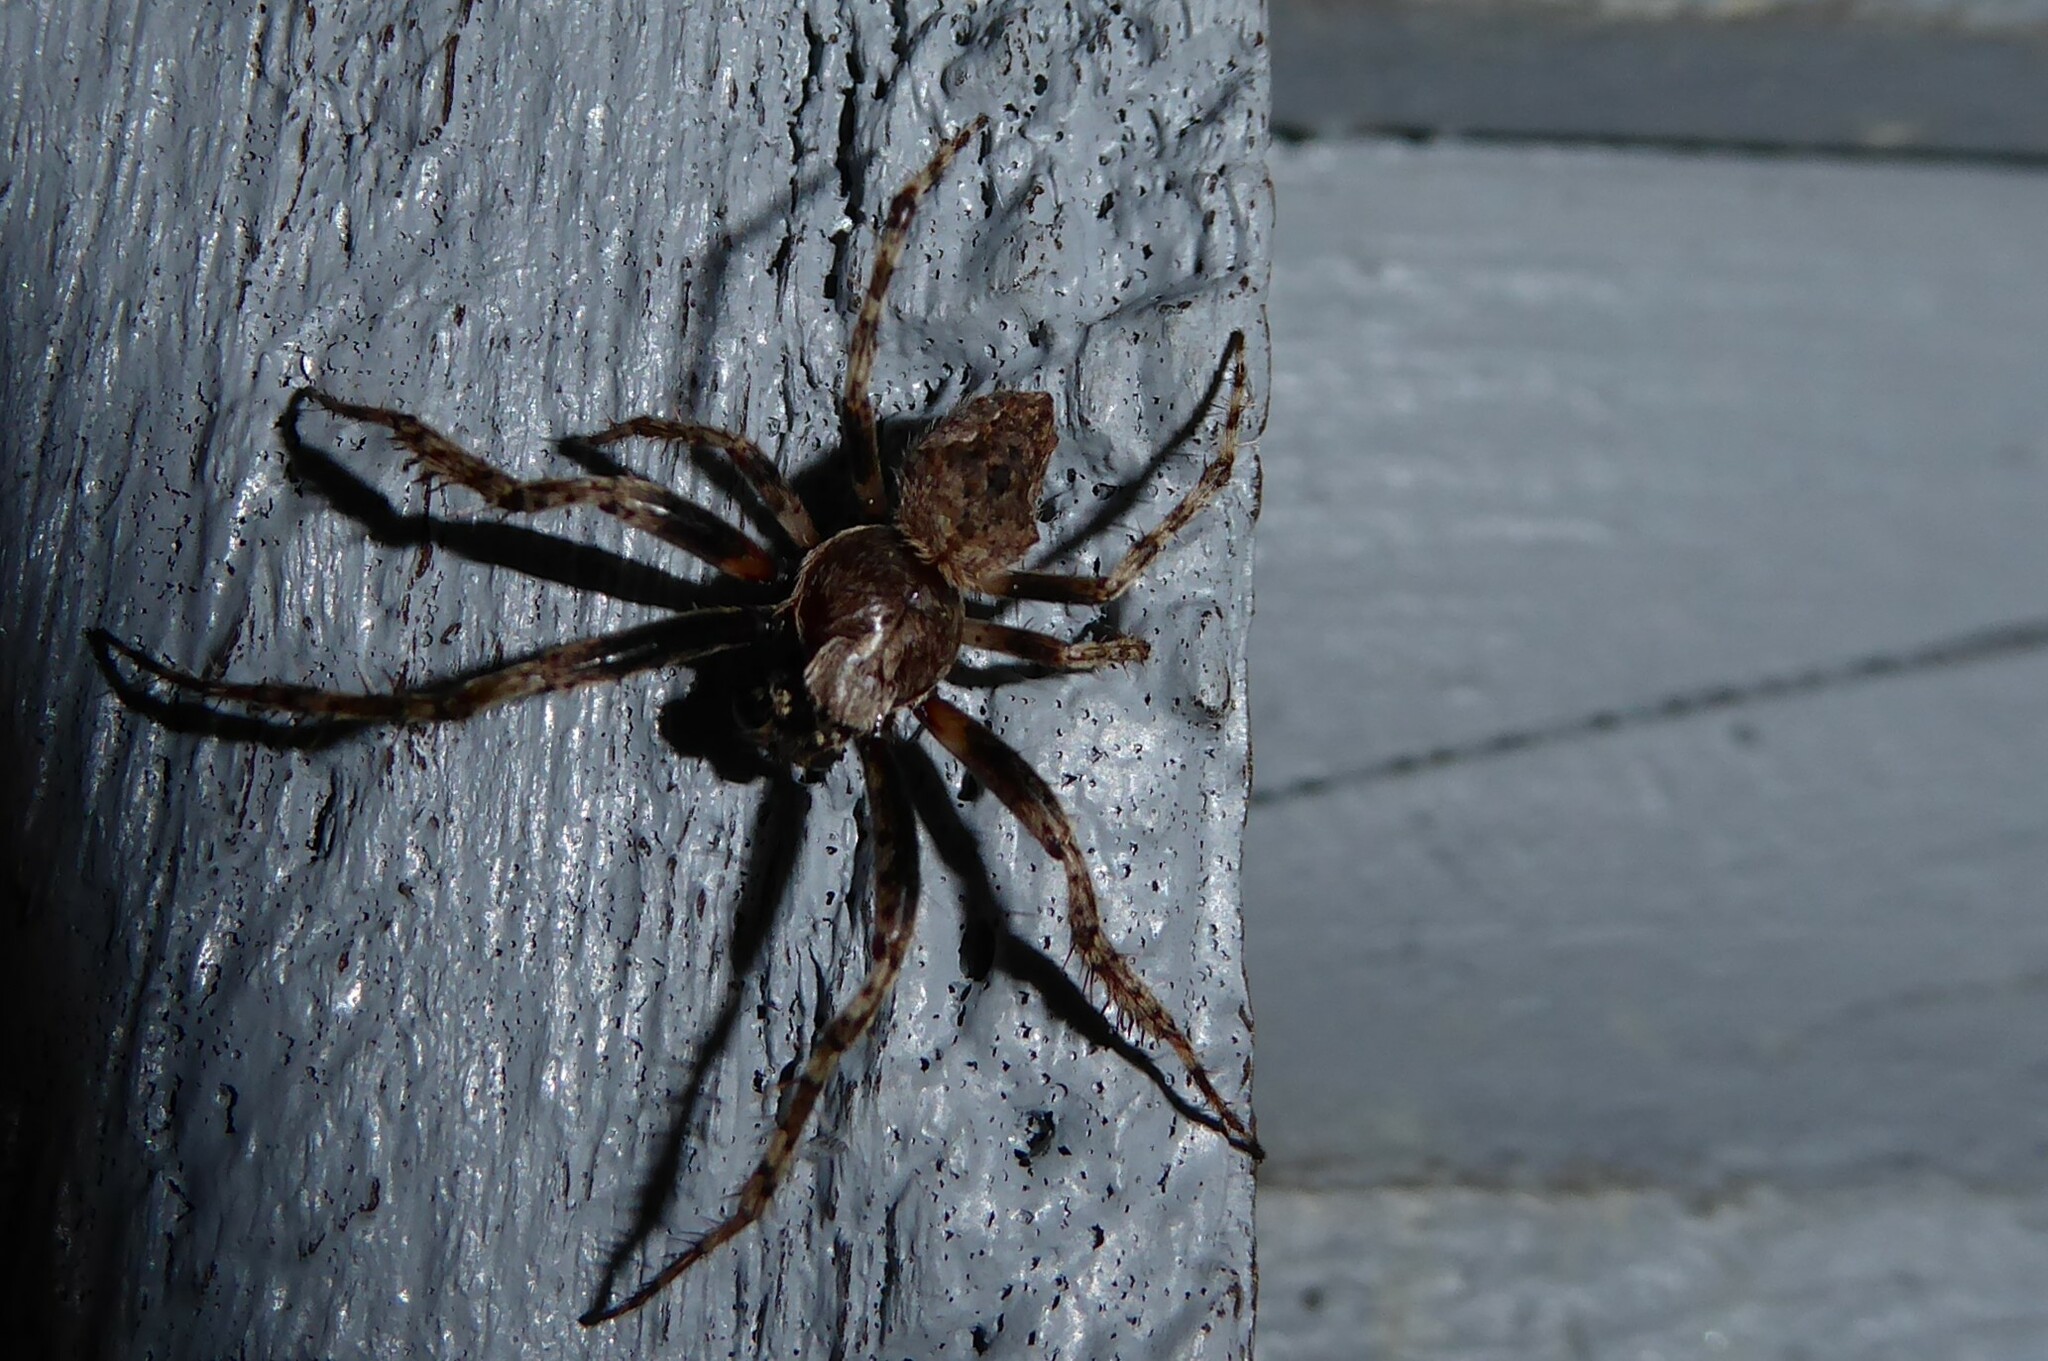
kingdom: Animalia
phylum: Arthropoda
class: Arachnida
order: Araneae
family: Araneidae
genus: Eriophora
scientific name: Eriophora pustulosa
